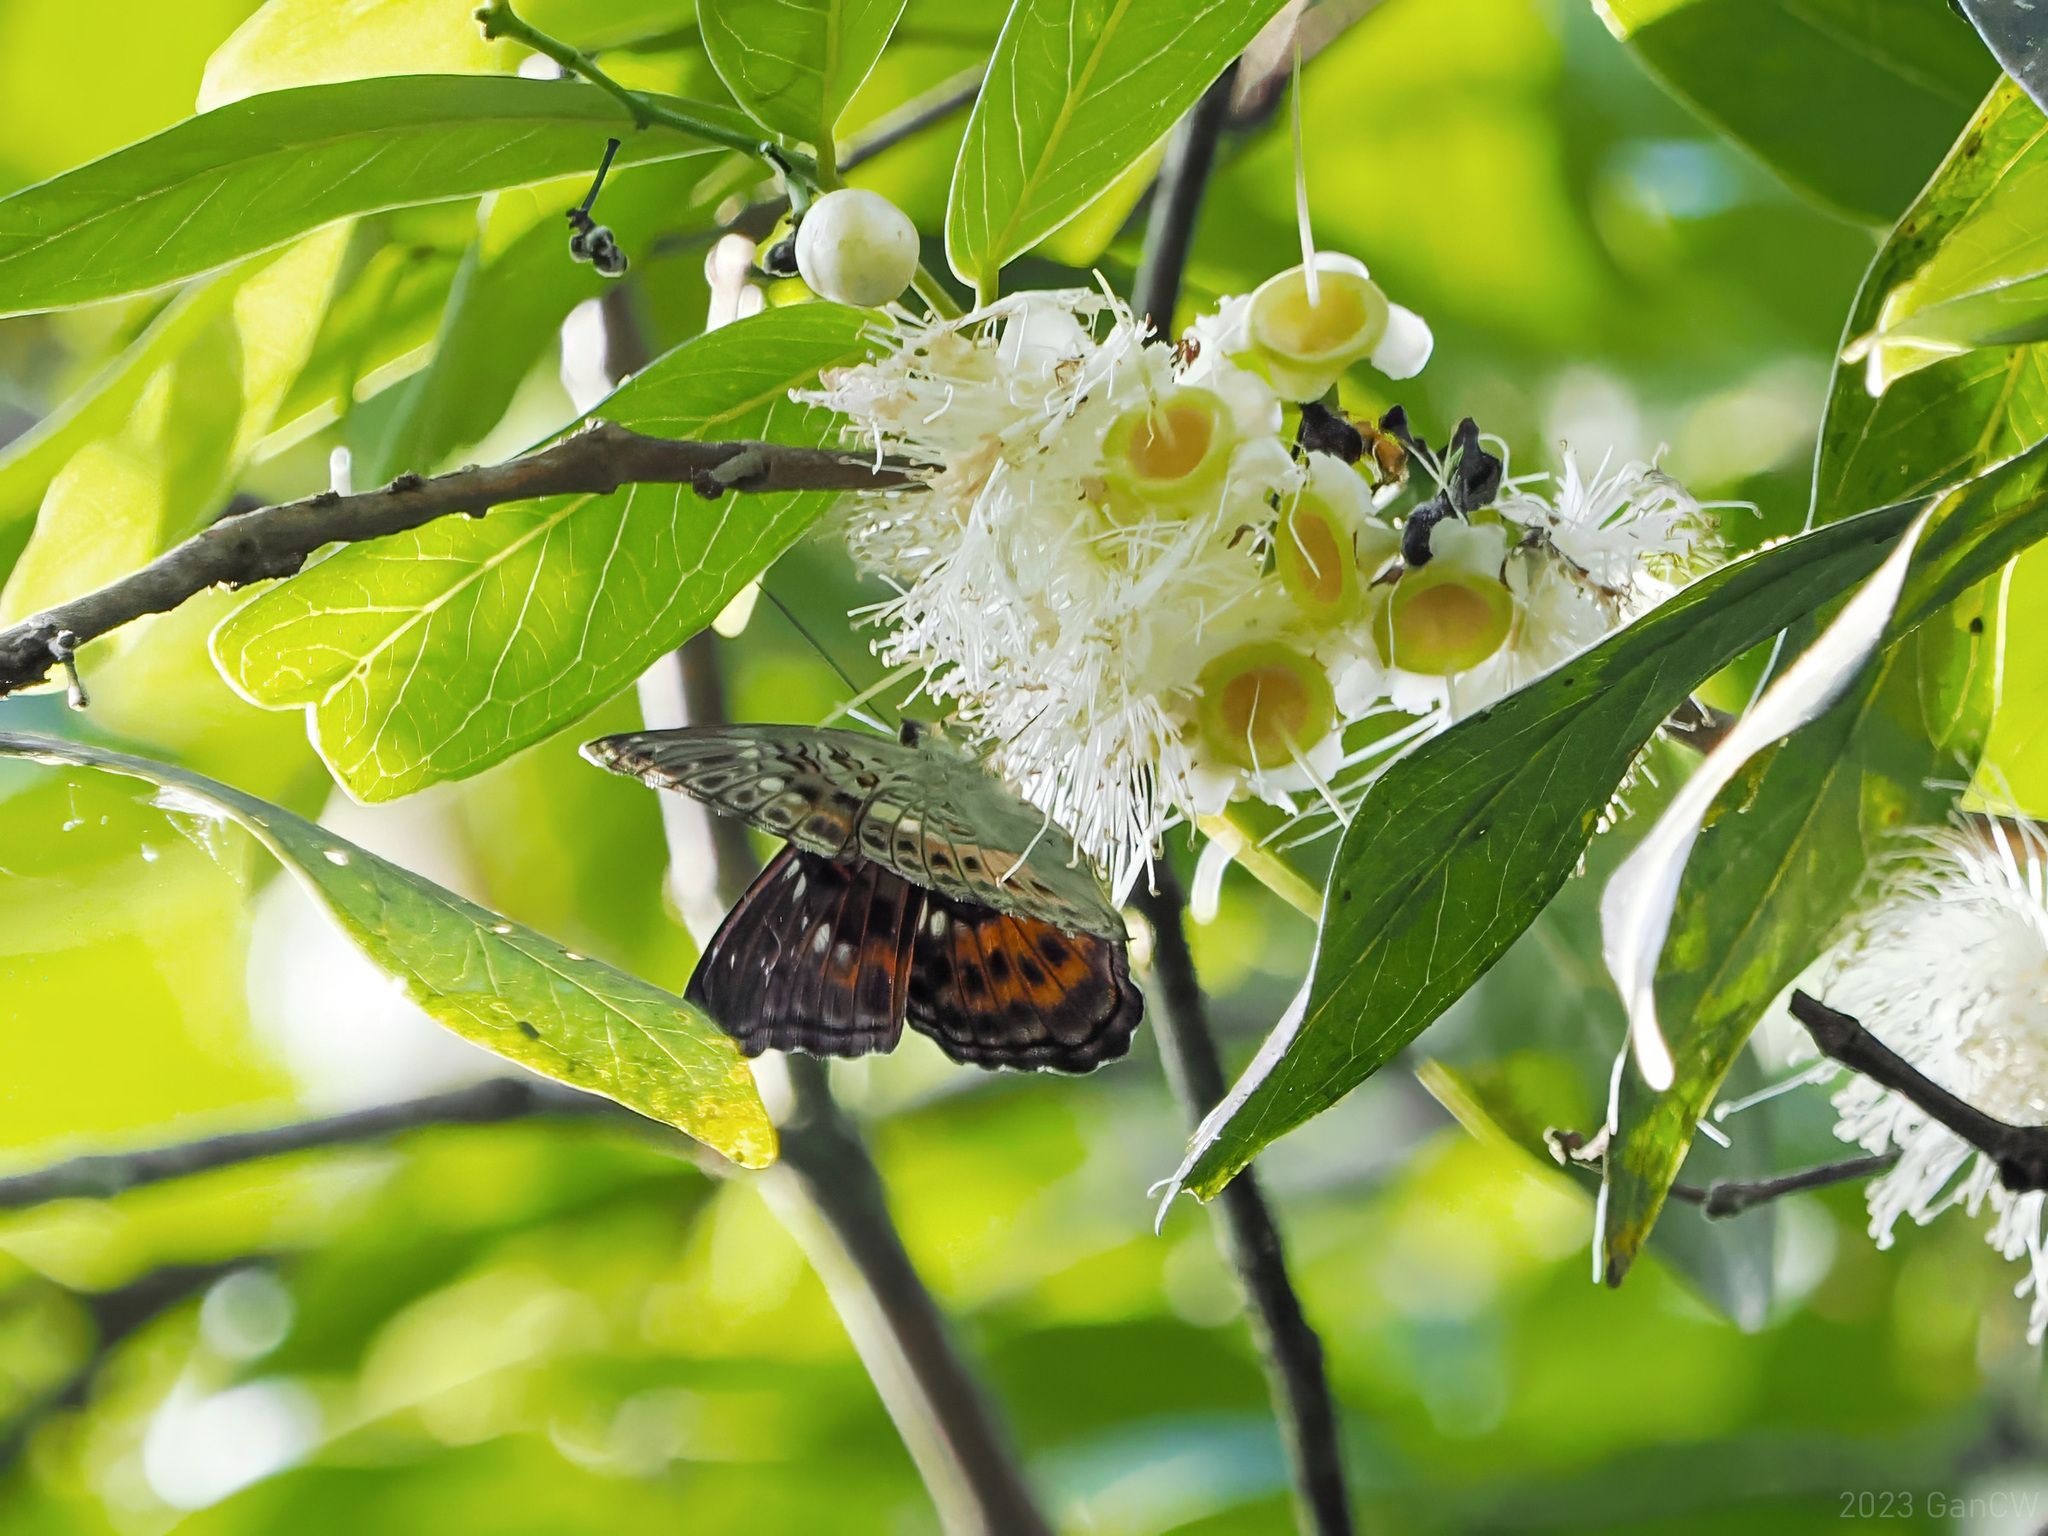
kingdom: Animalia
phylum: Arthropoda
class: Insecta
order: Lepidoptera
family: Nymphalidae
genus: Limenitis
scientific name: Limenitis
